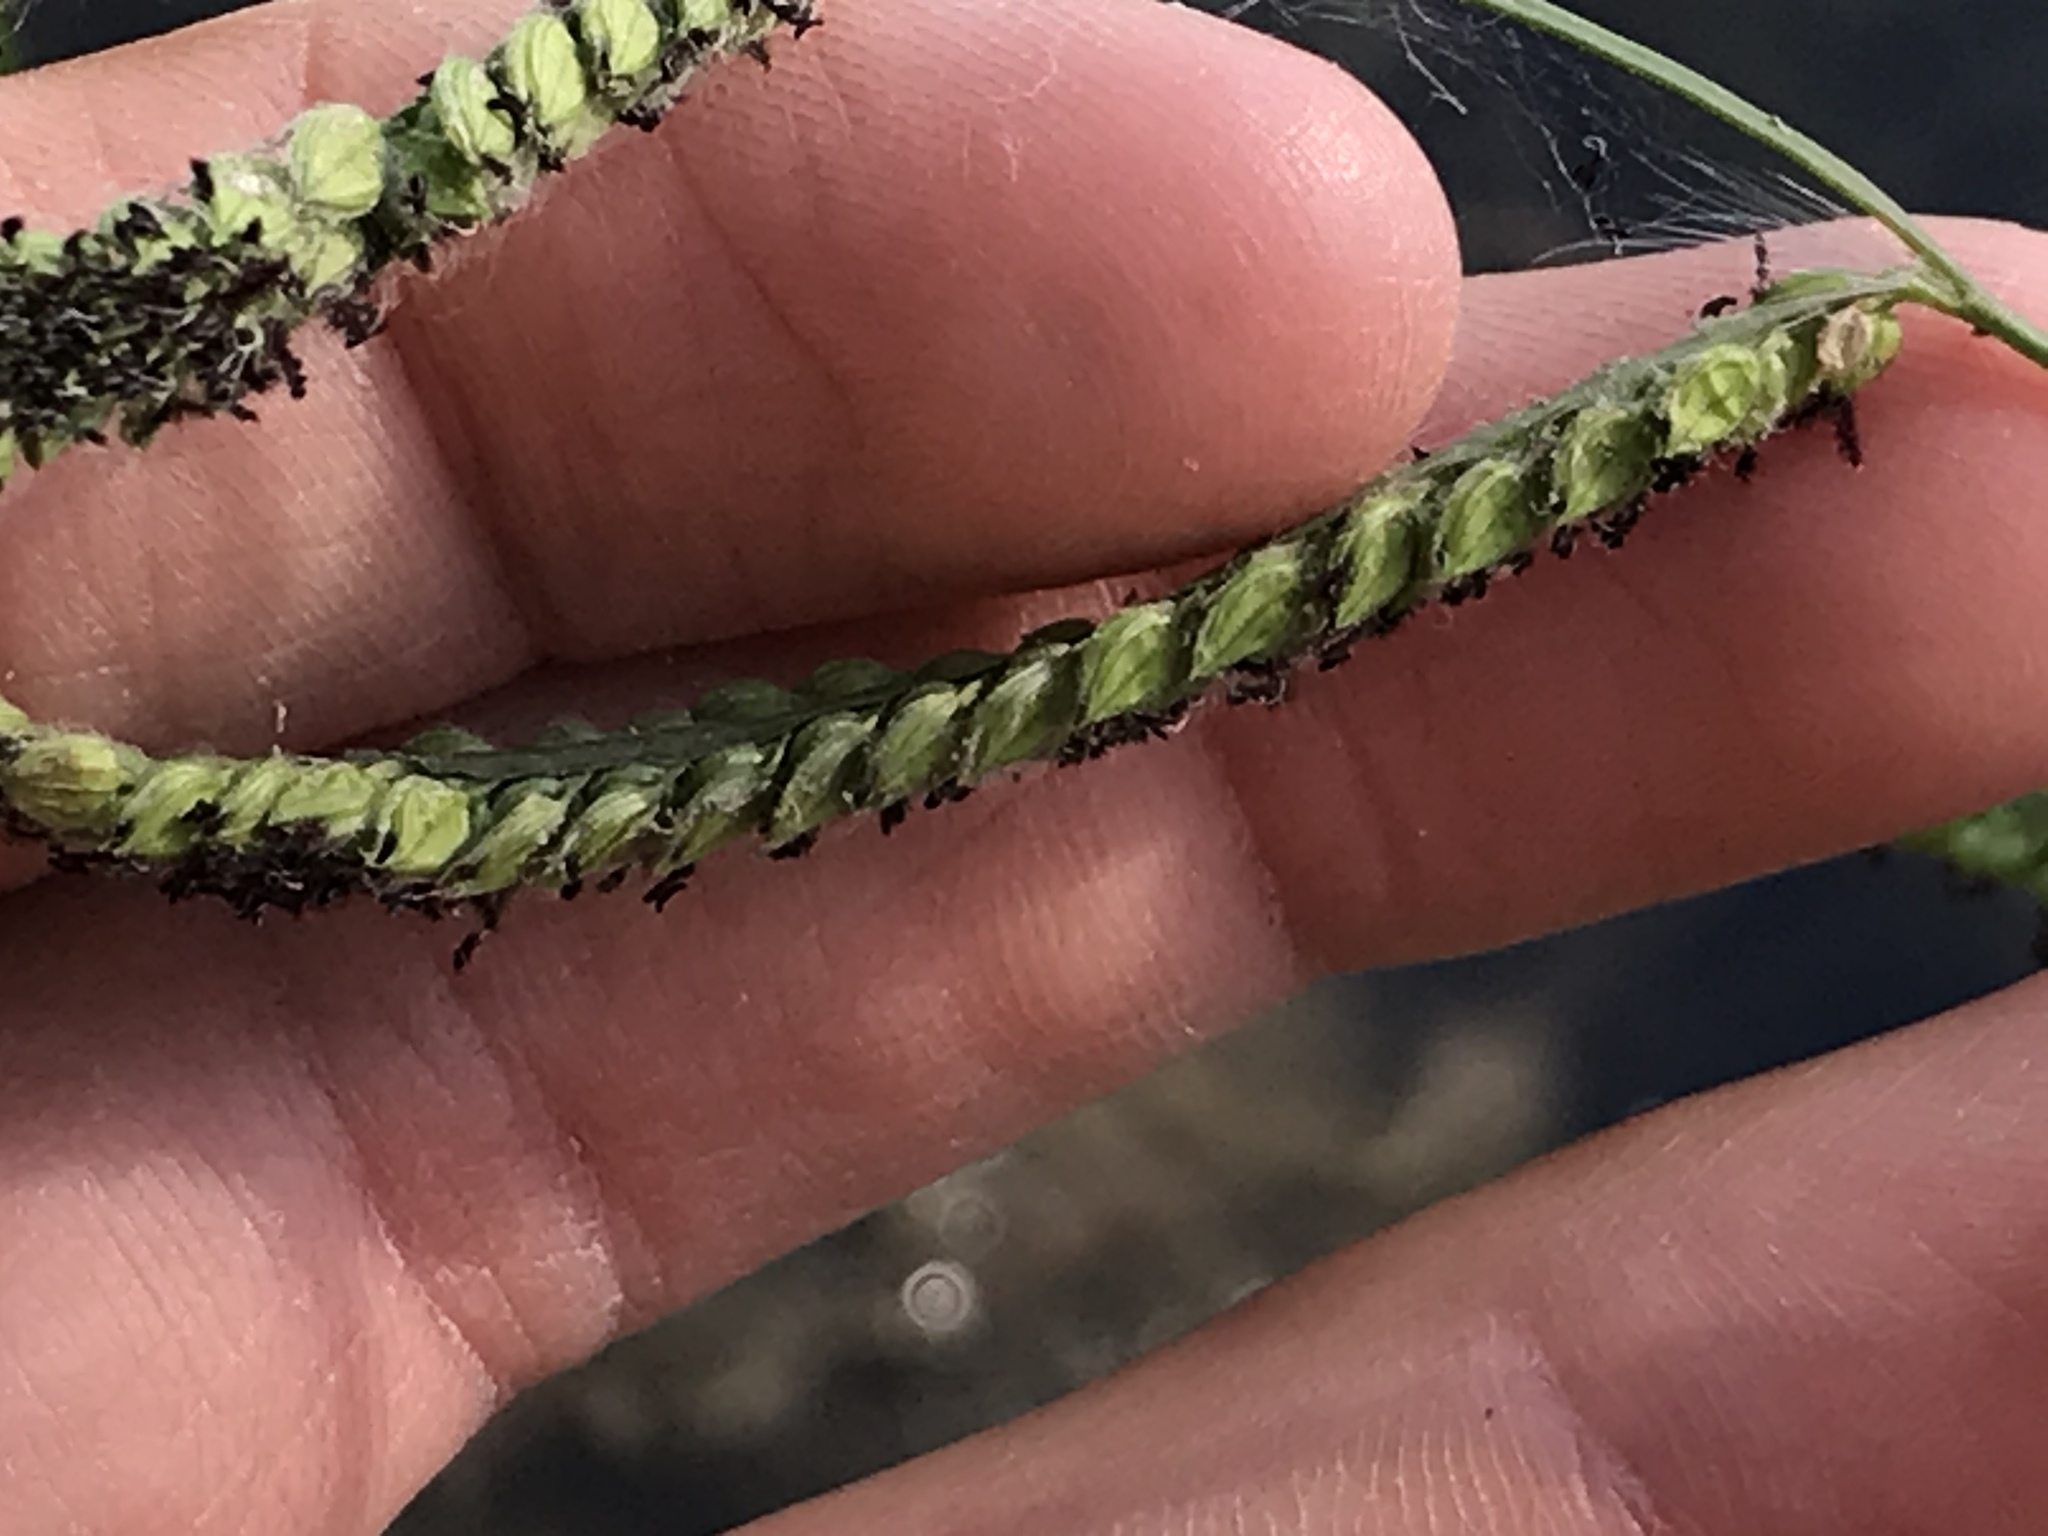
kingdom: Plantae
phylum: Tracheophyta
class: Liliopsida
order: Poales
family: Poaceae
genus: Paspalum
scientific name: Paspalum dilatatum
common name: Dallisgrass
